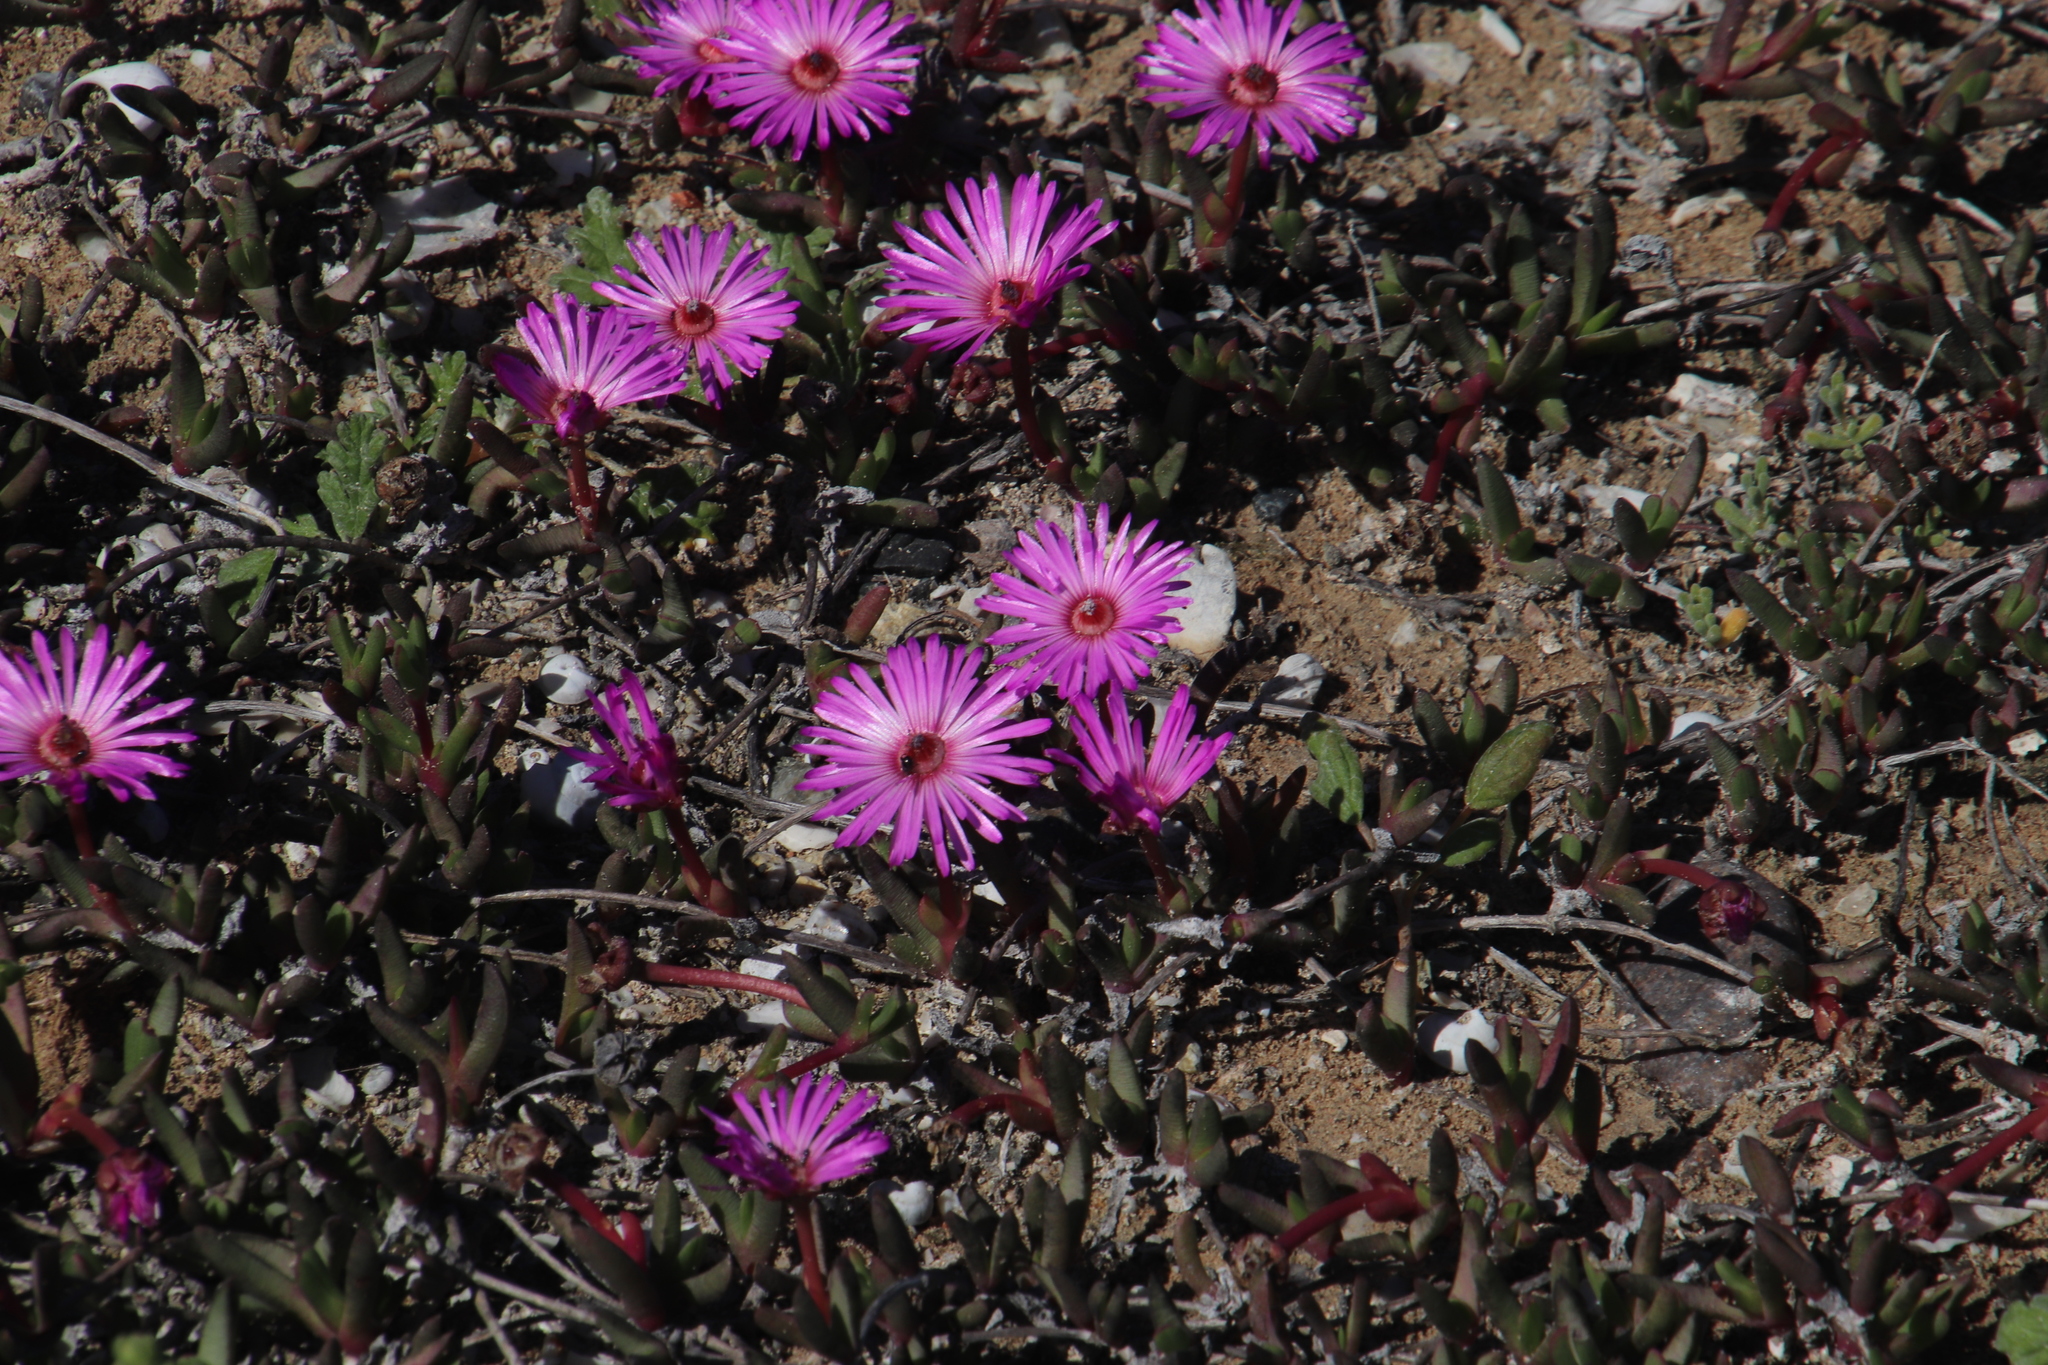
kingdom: Plantae
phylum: Tracheophyta
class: Magnoliopsida
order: Caryophyllales
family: Aizoaceae
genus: Cephalophyllum
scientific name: Cephalophyllum rostellum
